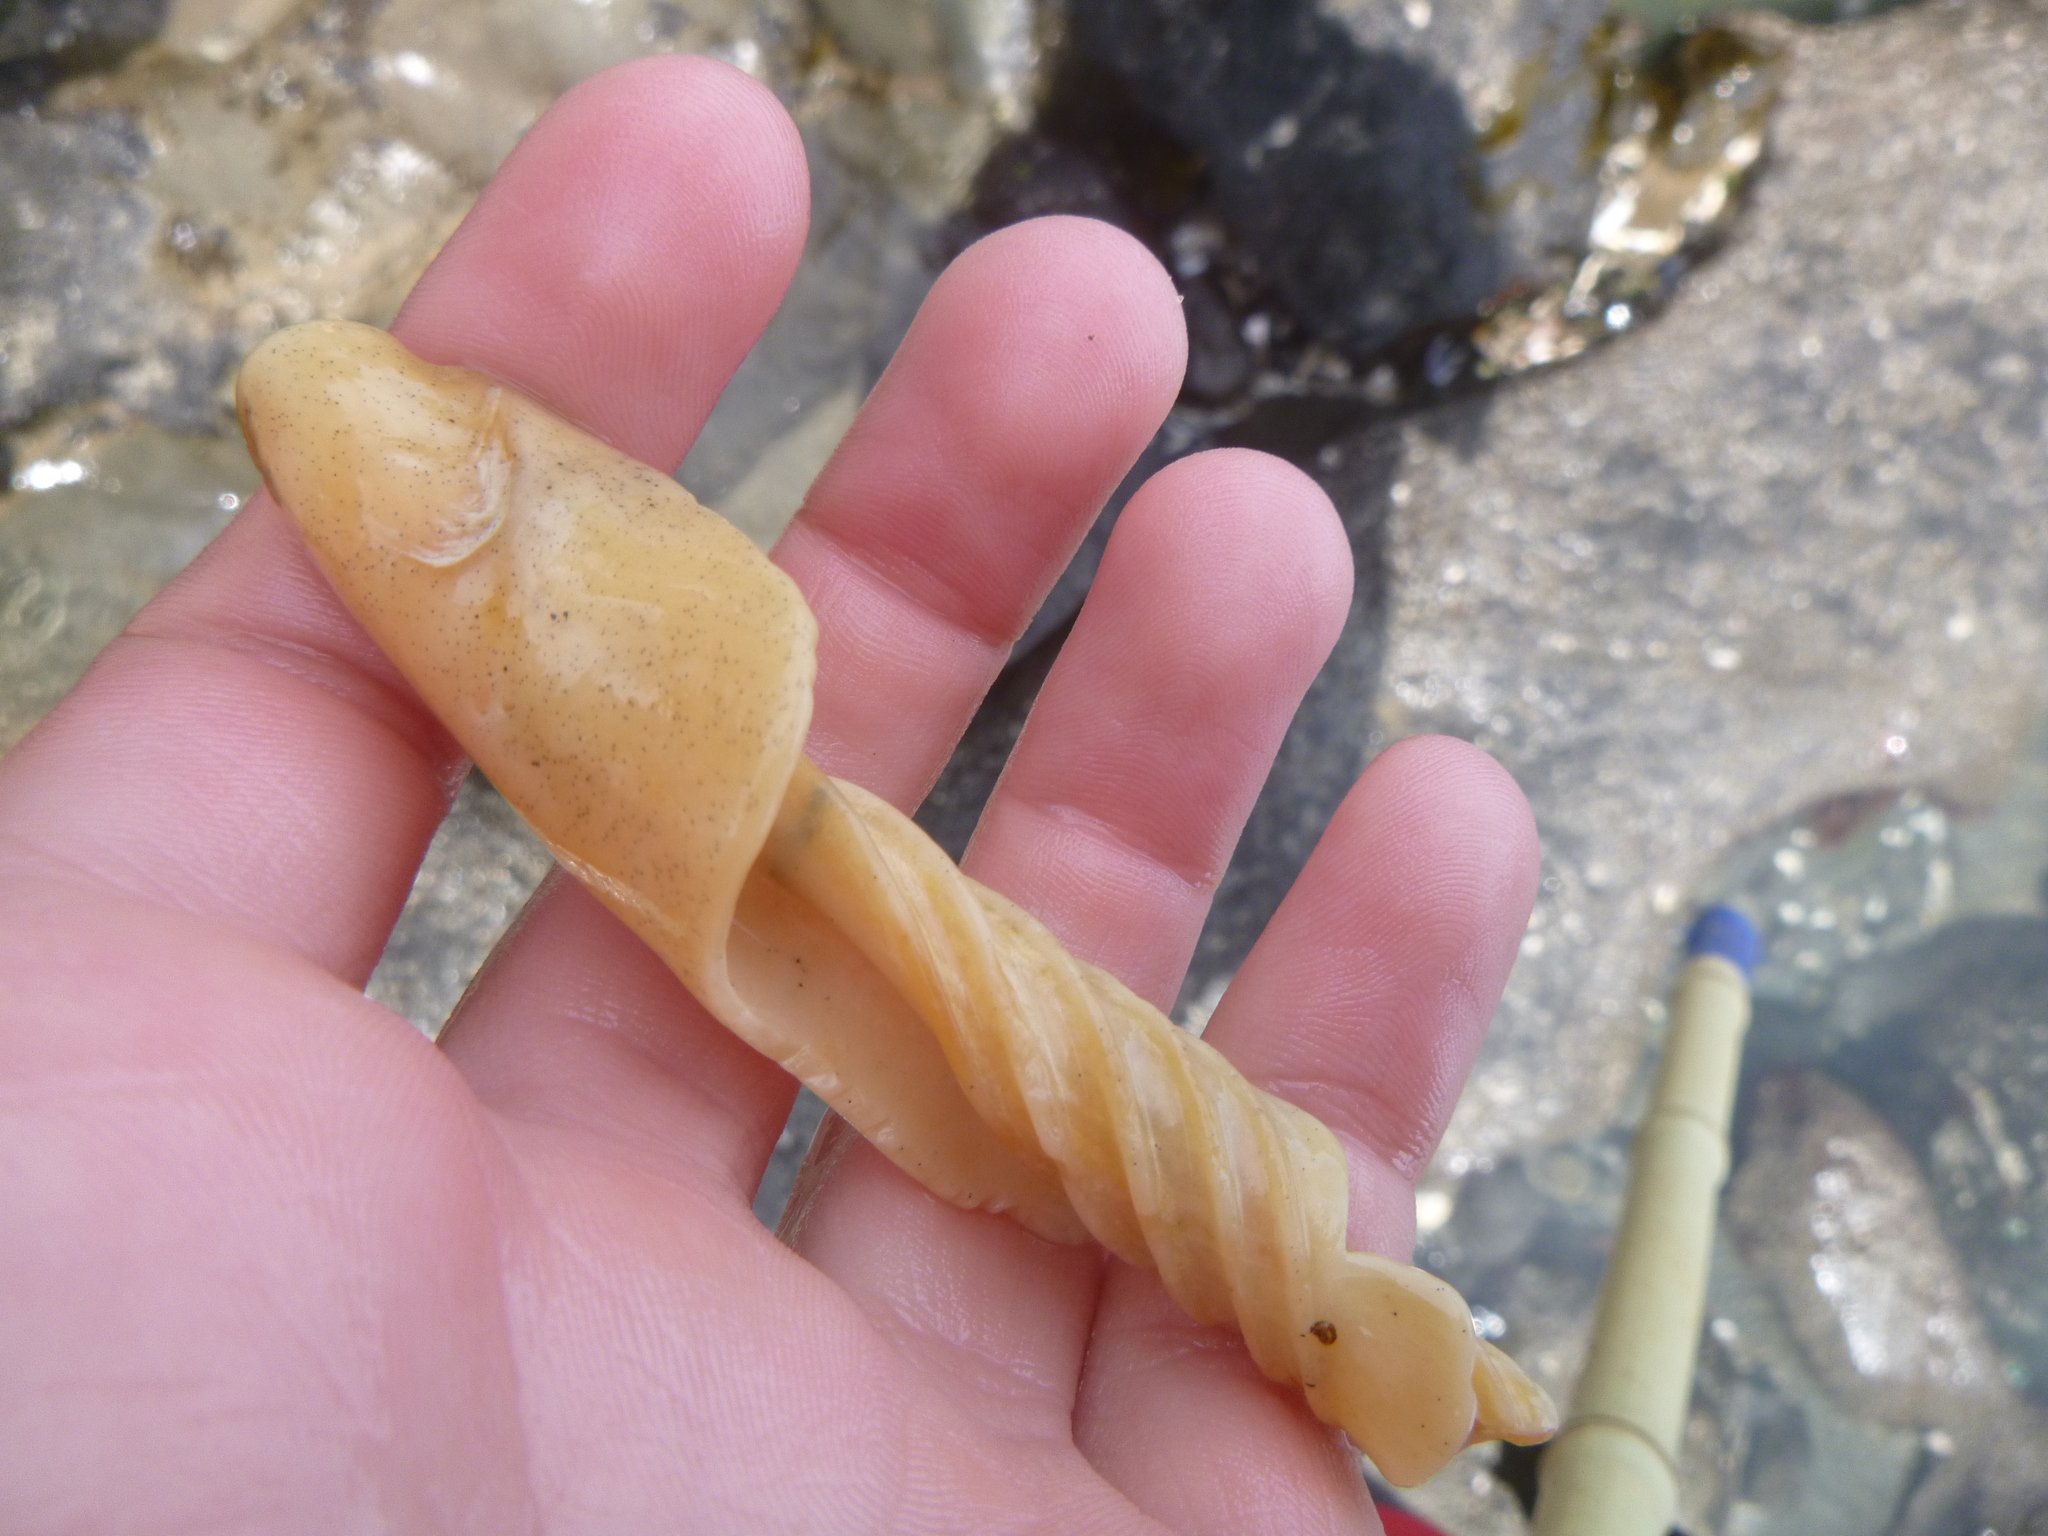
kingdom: Animalia
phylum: Mollusca
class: Gastropoda
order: Neogastropoda
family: Volutidae
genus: Alcithoe
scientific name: Alcithoe arabica
